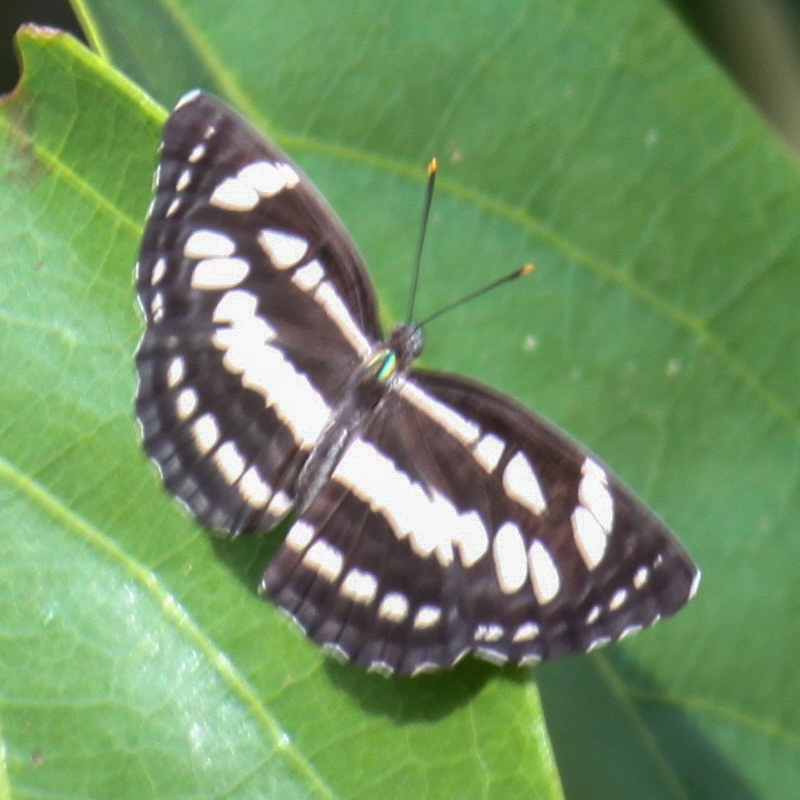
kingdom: Animalia
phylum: Arthropoda
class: Insecta
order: Lepidoptera
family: Nymphalidae
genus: Neptis
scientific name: Neptis hylas
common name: Common sailer
